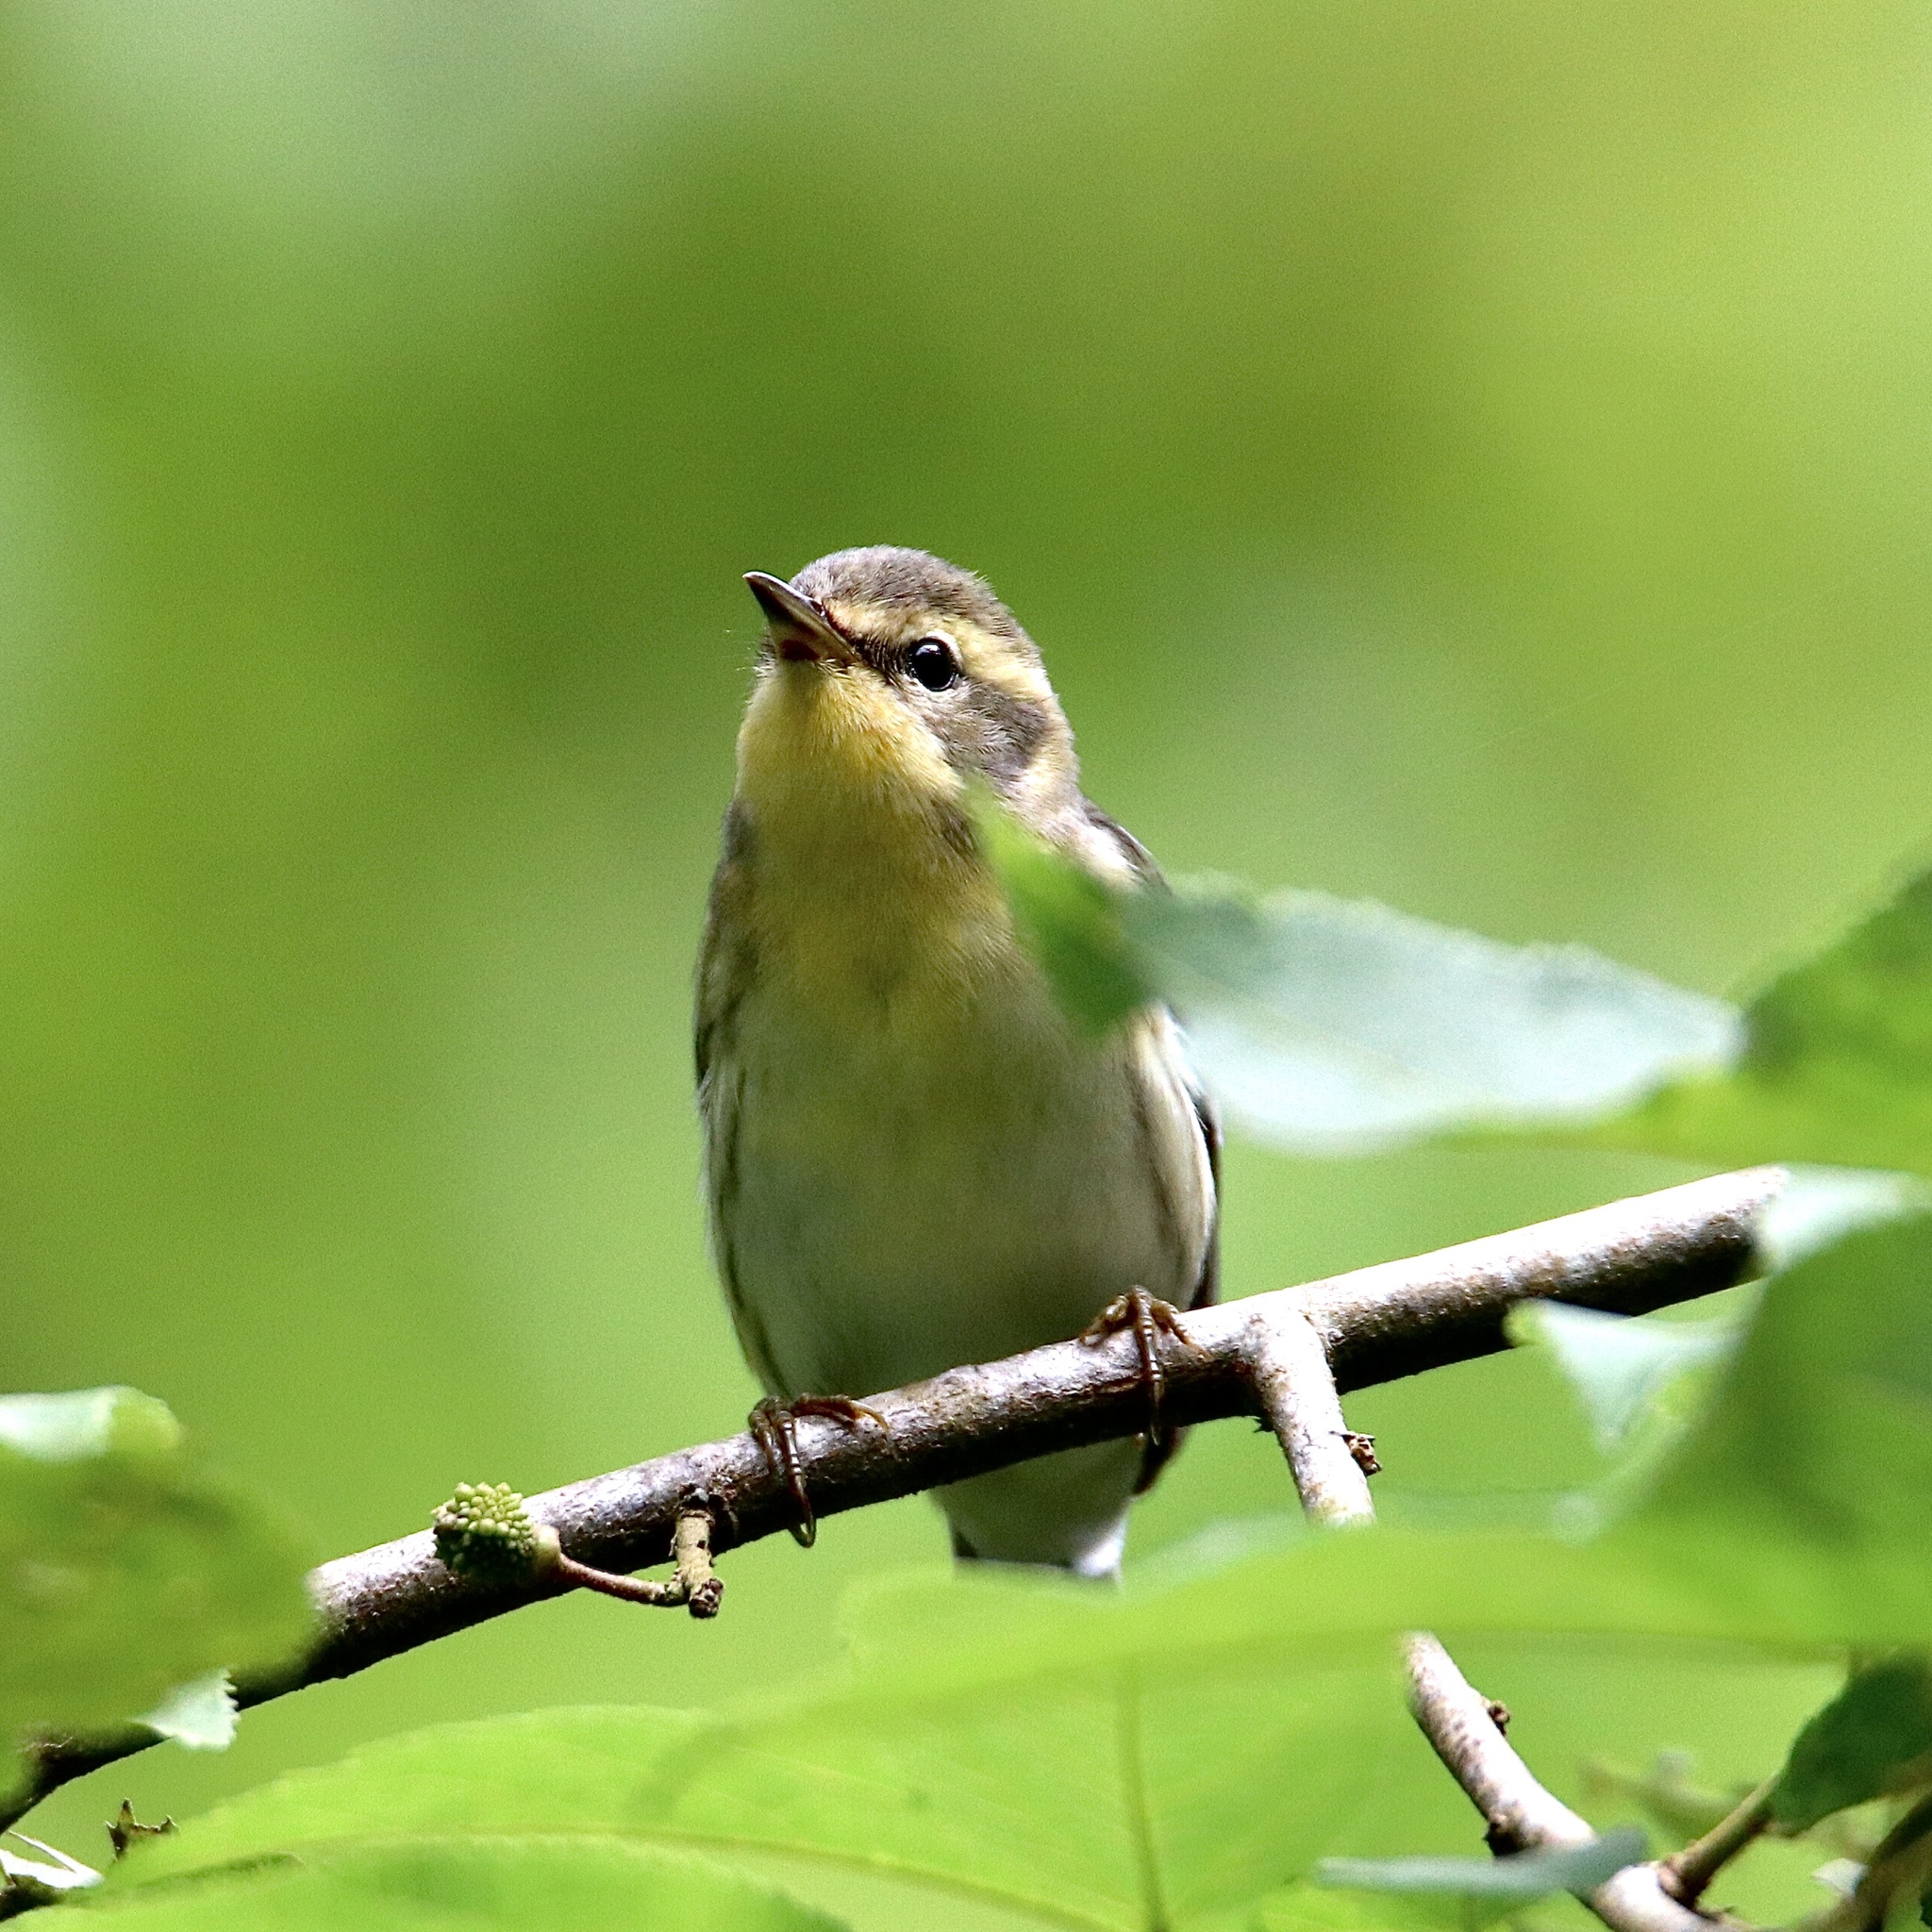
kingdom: Animalia
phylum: Chordata
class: Aves
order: Passeriformes
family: Parulidae
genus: Setophaga
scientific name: Setophaga fusca
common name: Blackburnian warbler
